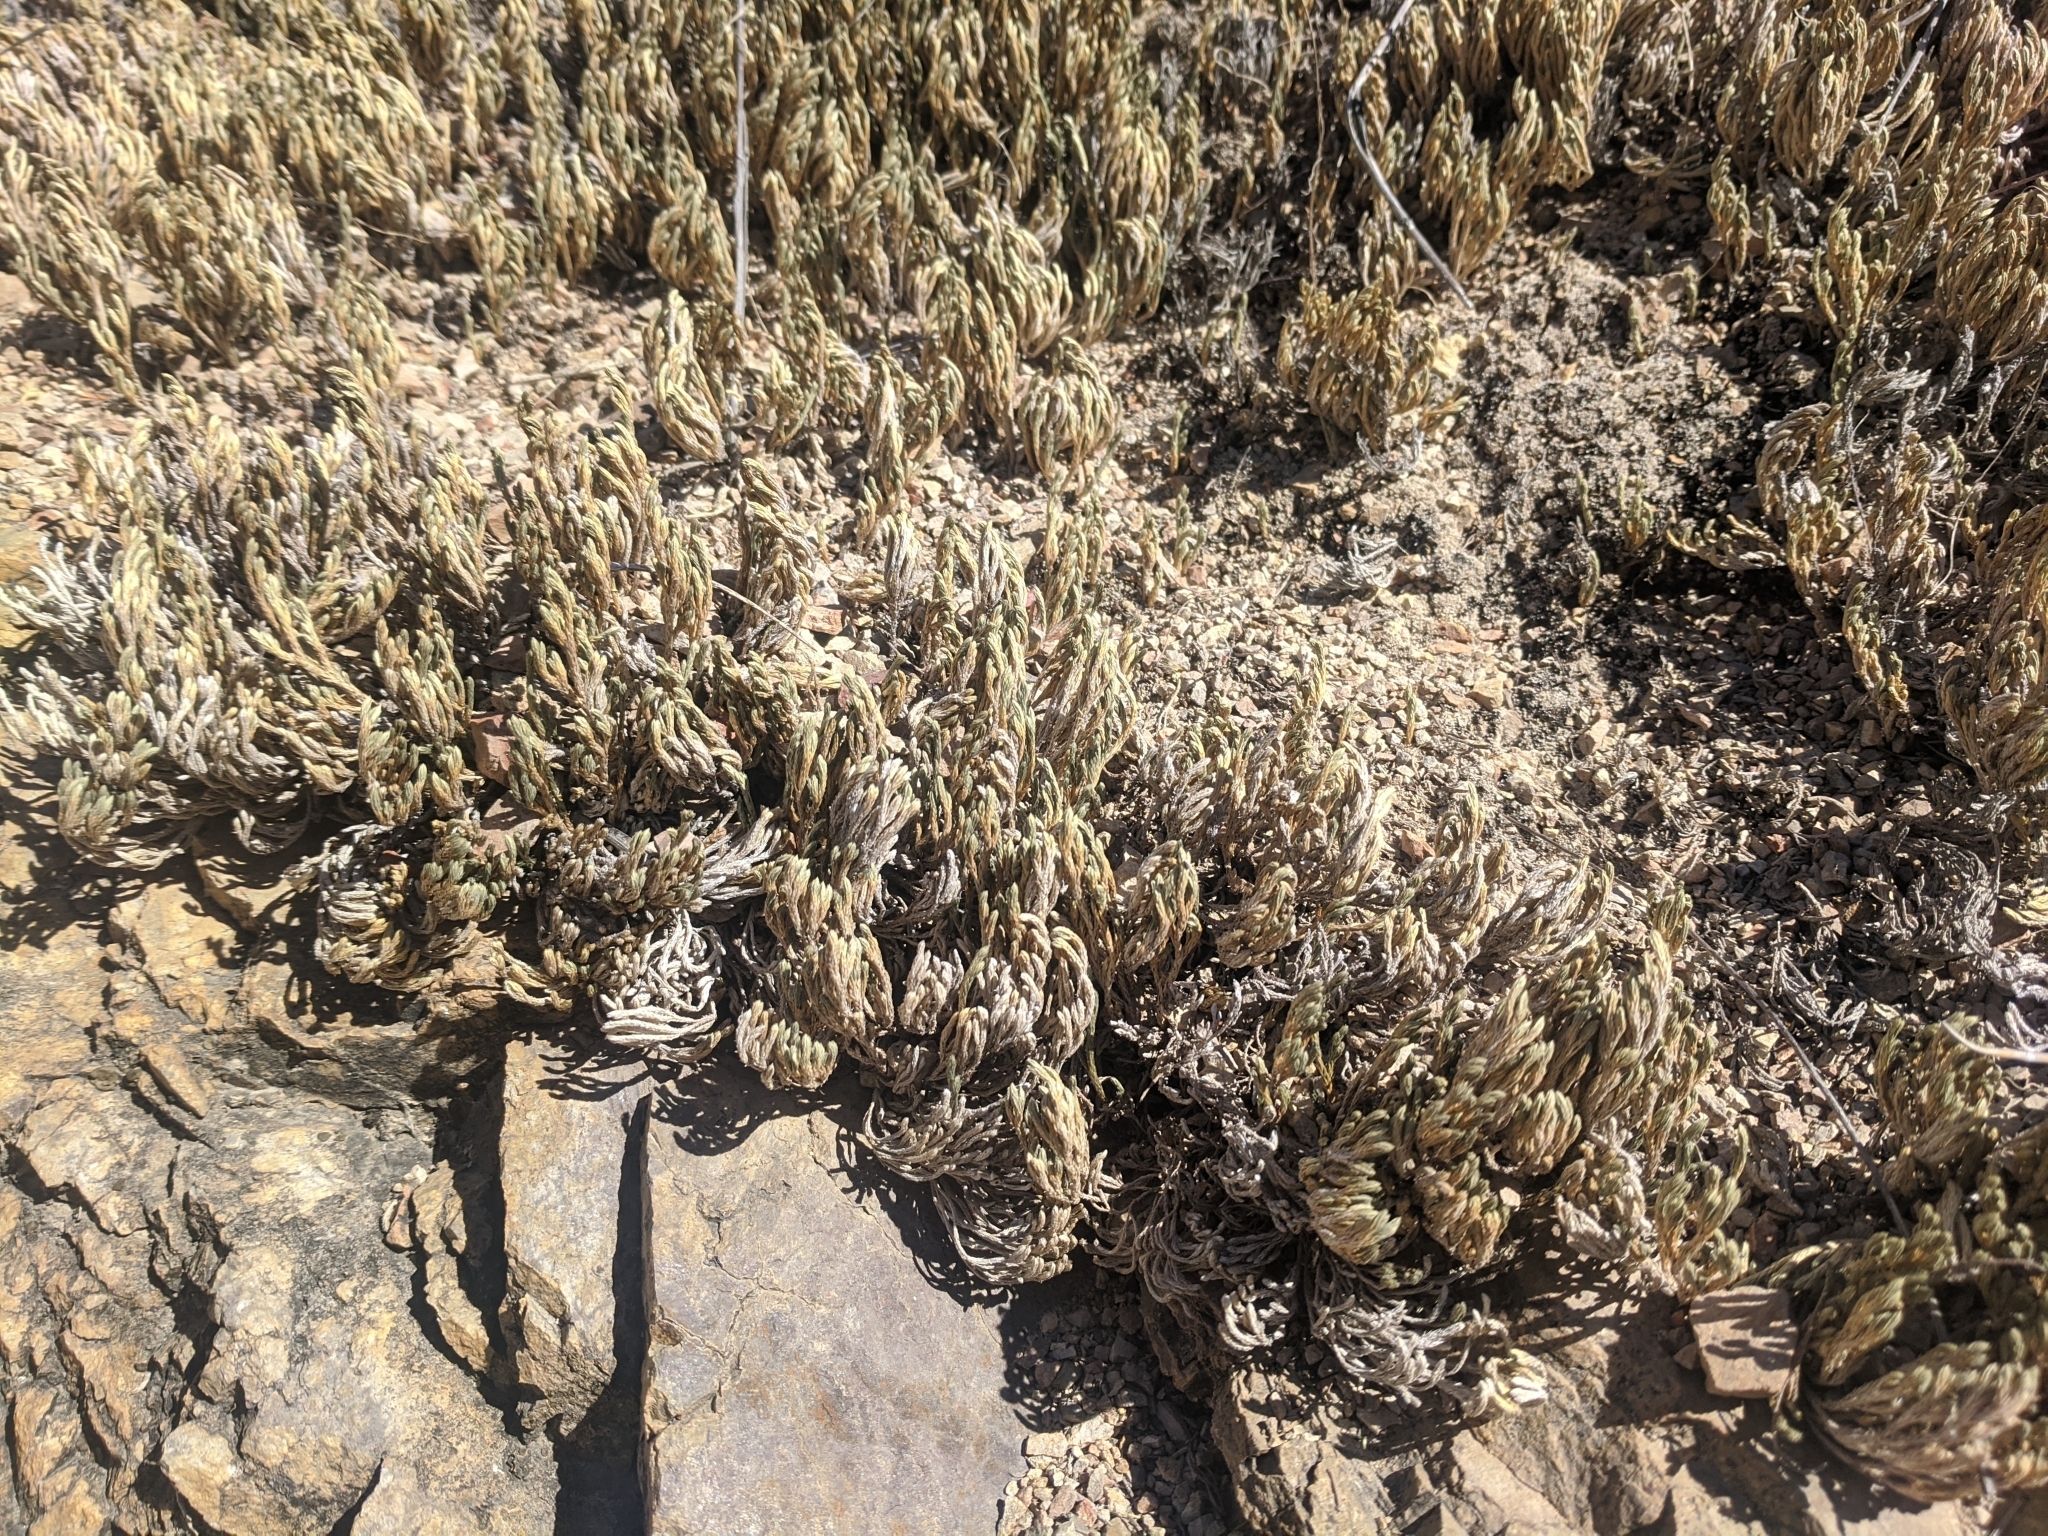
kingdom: Plantae
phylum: Tracheophyta
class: Lycopodiopsida
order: Selaginellales
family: Selaginellaceae
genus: Selaginella
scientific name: Selaginella bigelovii
